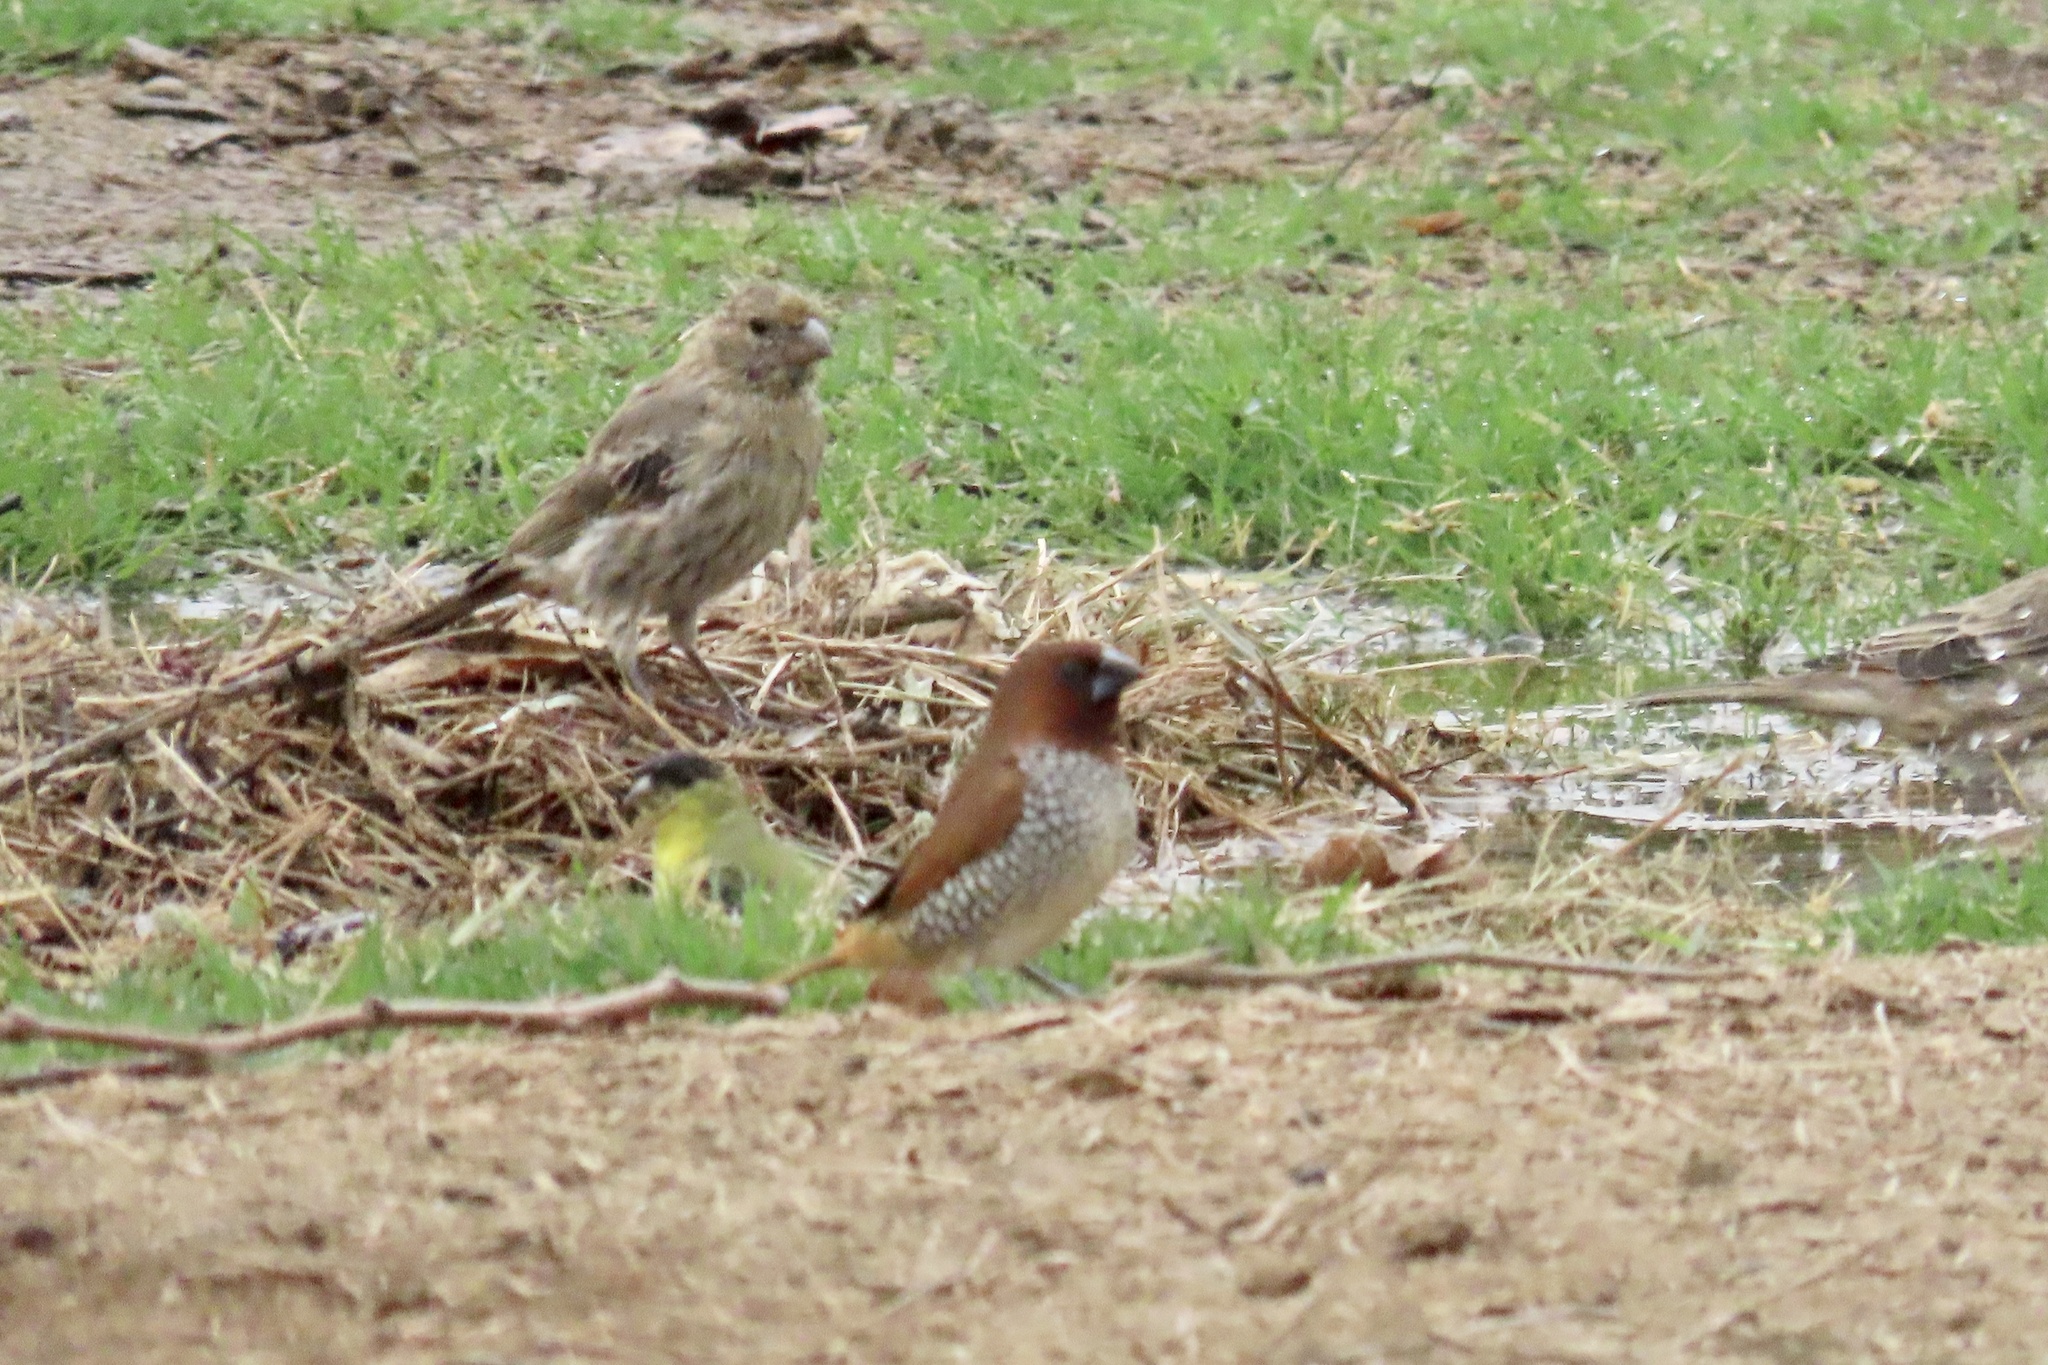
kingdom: Animalia
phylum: Chordata
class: Aves
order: Passeriformes
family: Estrildidae
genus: Lonchura
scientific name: Lonchura punctulata
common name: Scaly-breasted munia
